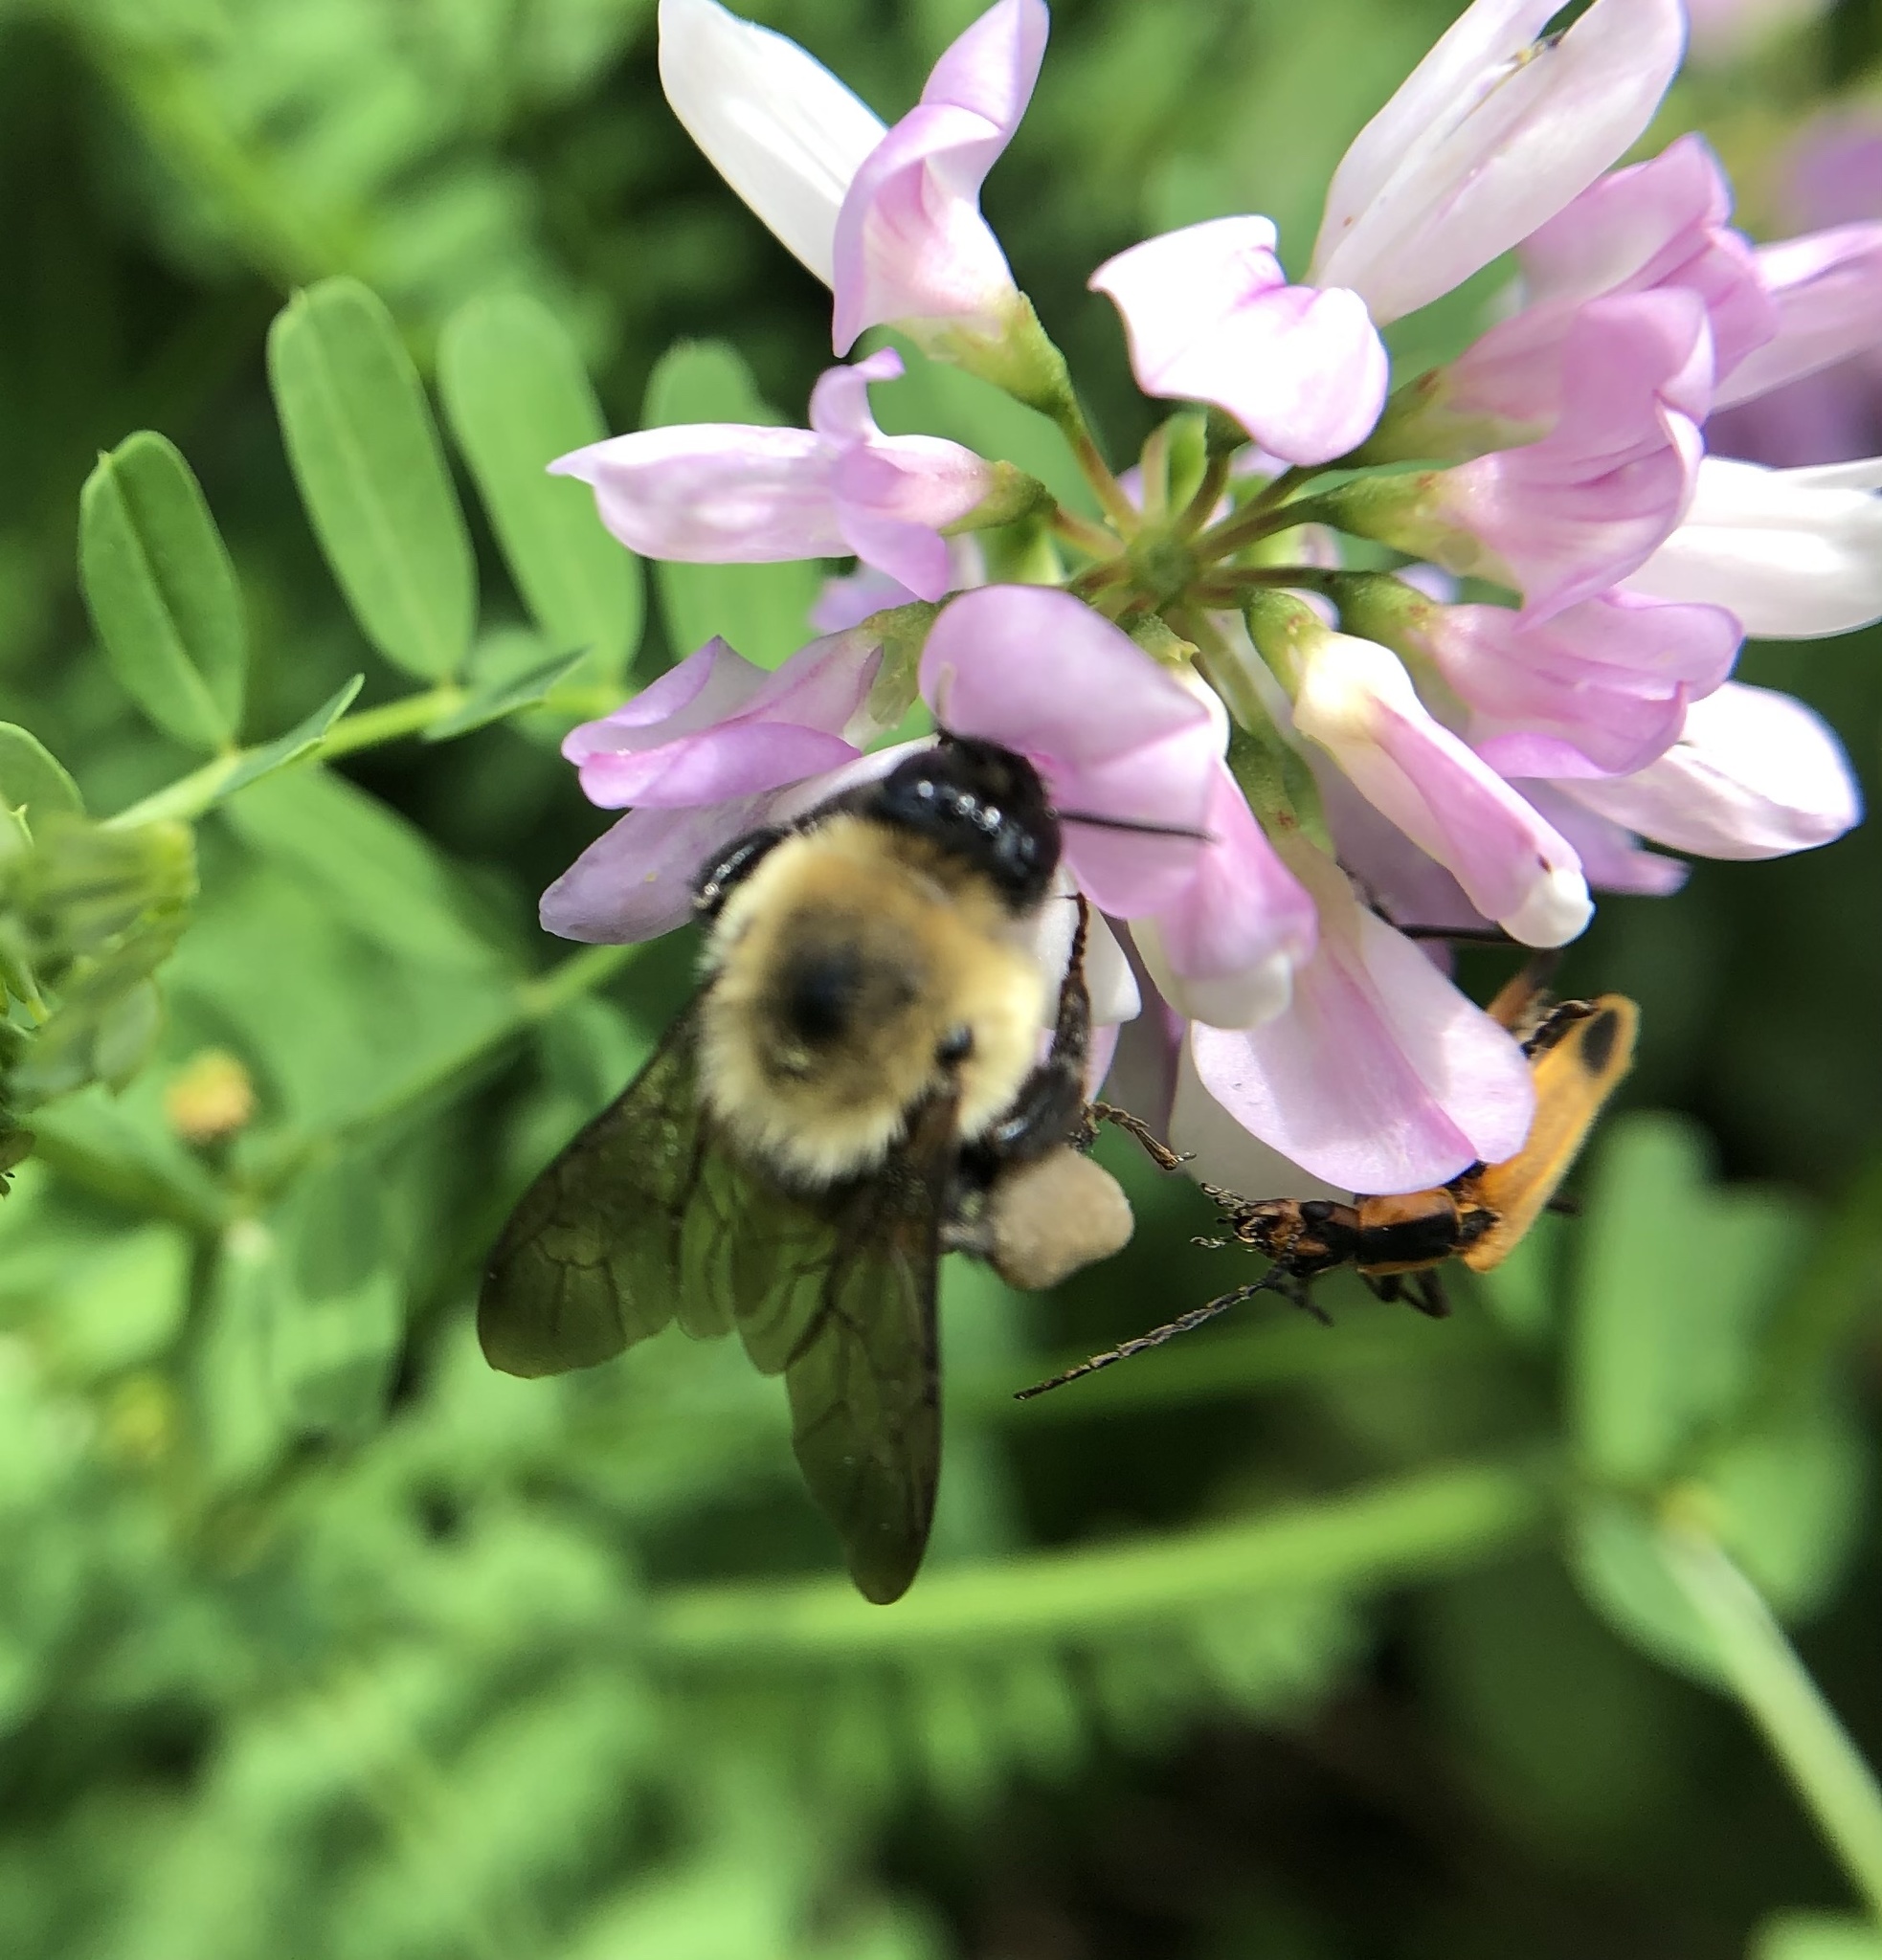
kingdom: Animalia
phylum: Arthropoda
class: Insecta
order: Hymenoptera
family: Apidae
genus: Bombus
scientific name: Bombus griseocollis
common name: Brown-belted bumble bee
